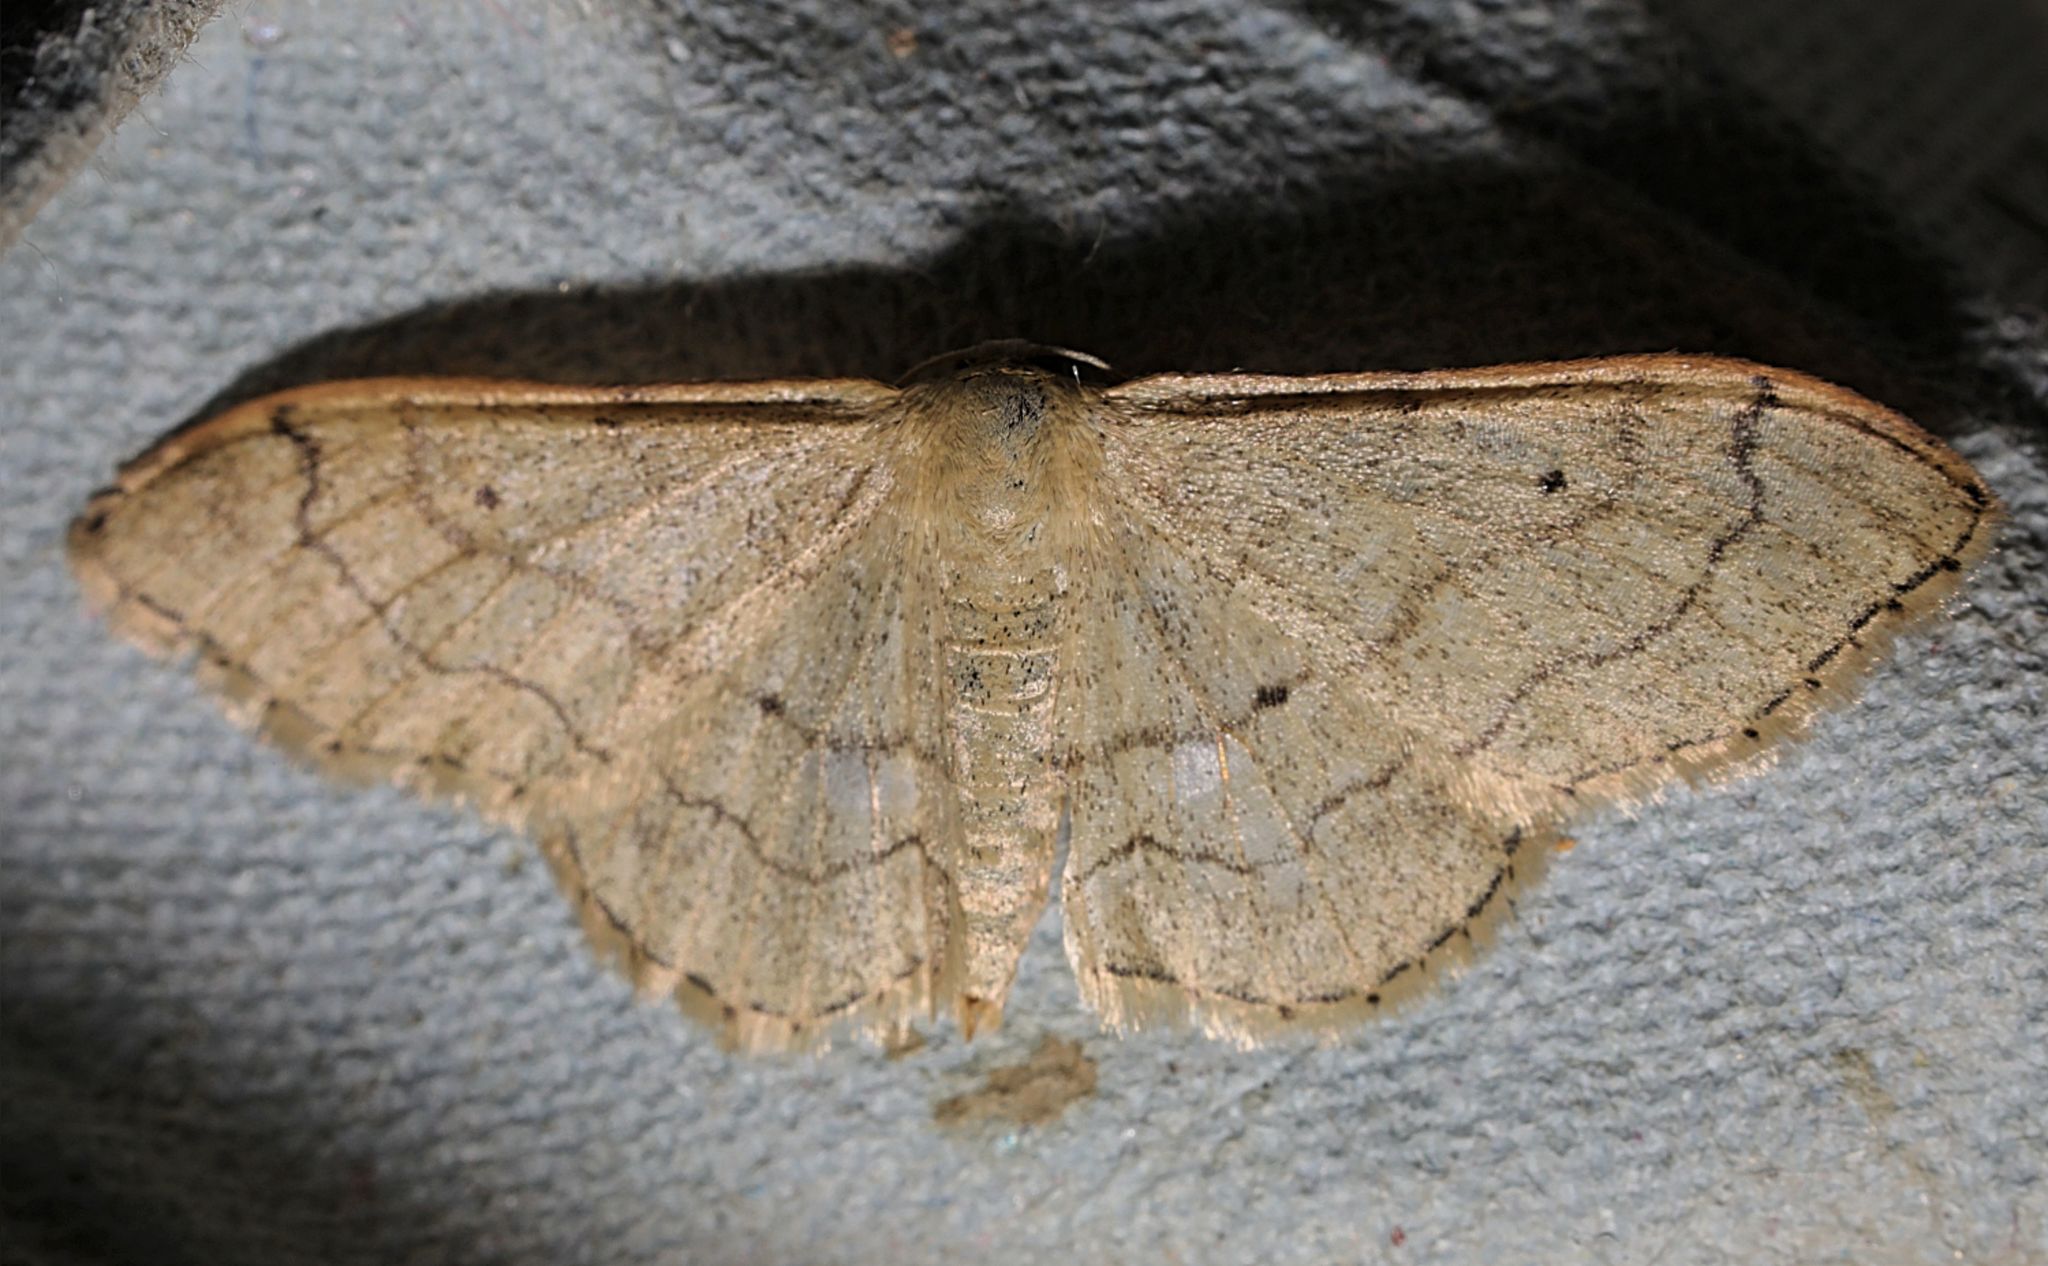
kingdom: Animalia
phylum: Arthropoda
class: Insecta
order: Lepidoptera
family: Geometridae
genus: Idaea
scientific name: Idaea aversata
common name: Riband wave
